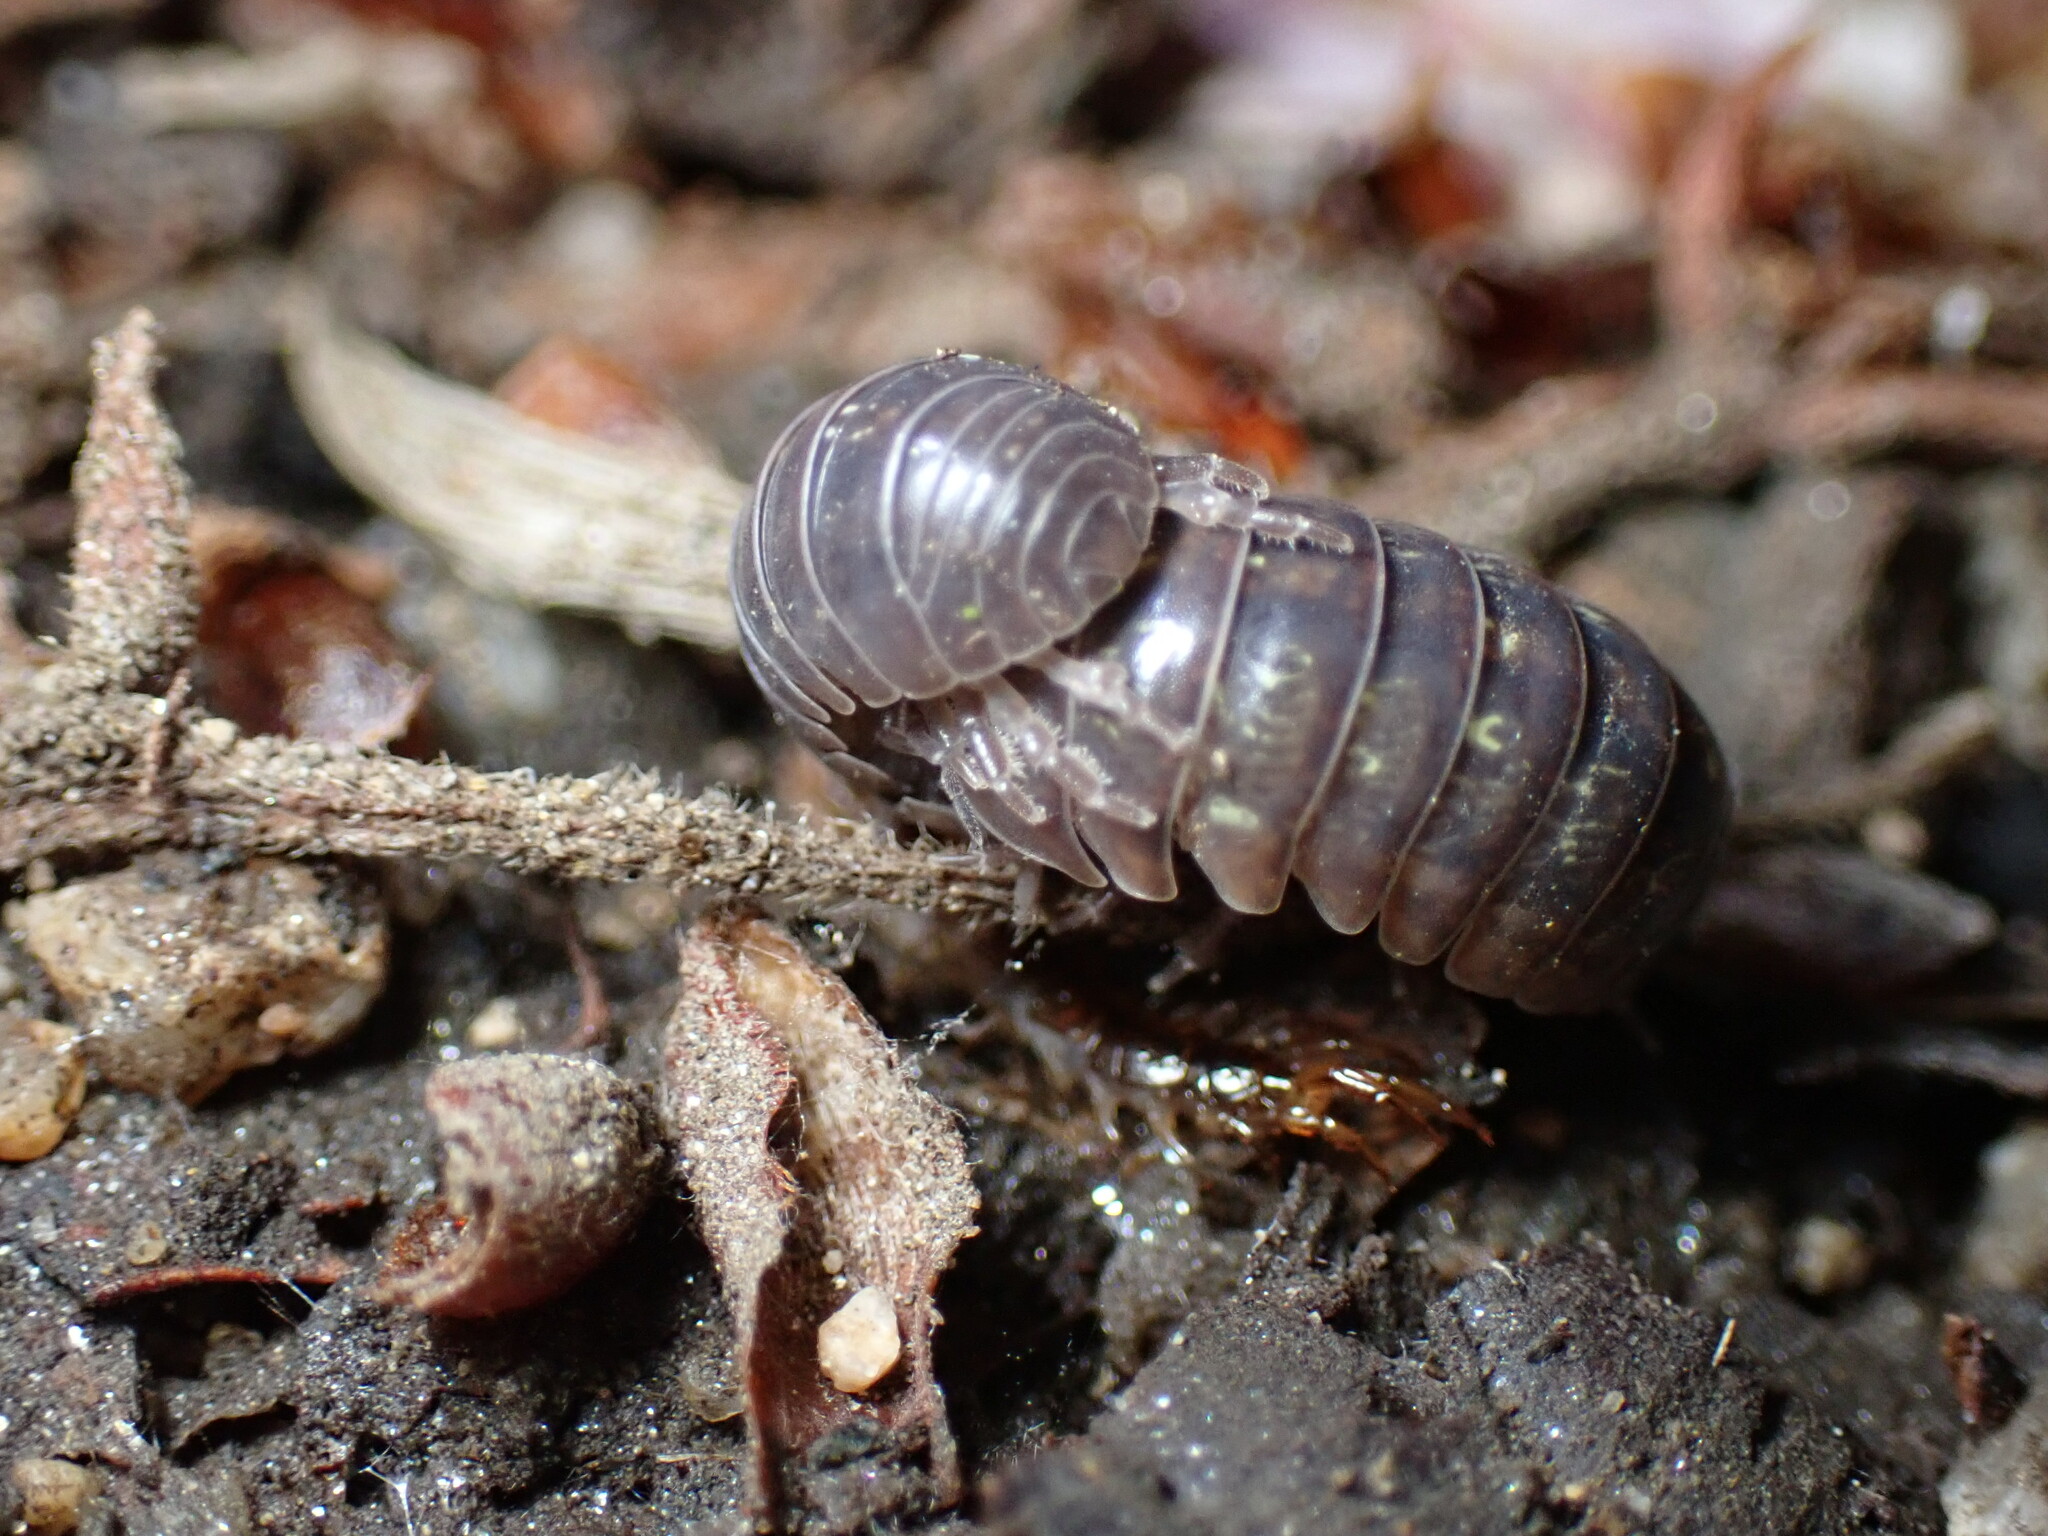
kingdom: Animalia
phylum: Arthropoda
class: Malacostraca
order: Isopoda
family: Armadillidiidae
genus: Armadillidium
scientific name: Armadillidium vulgare
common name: Common pill woodlouse
